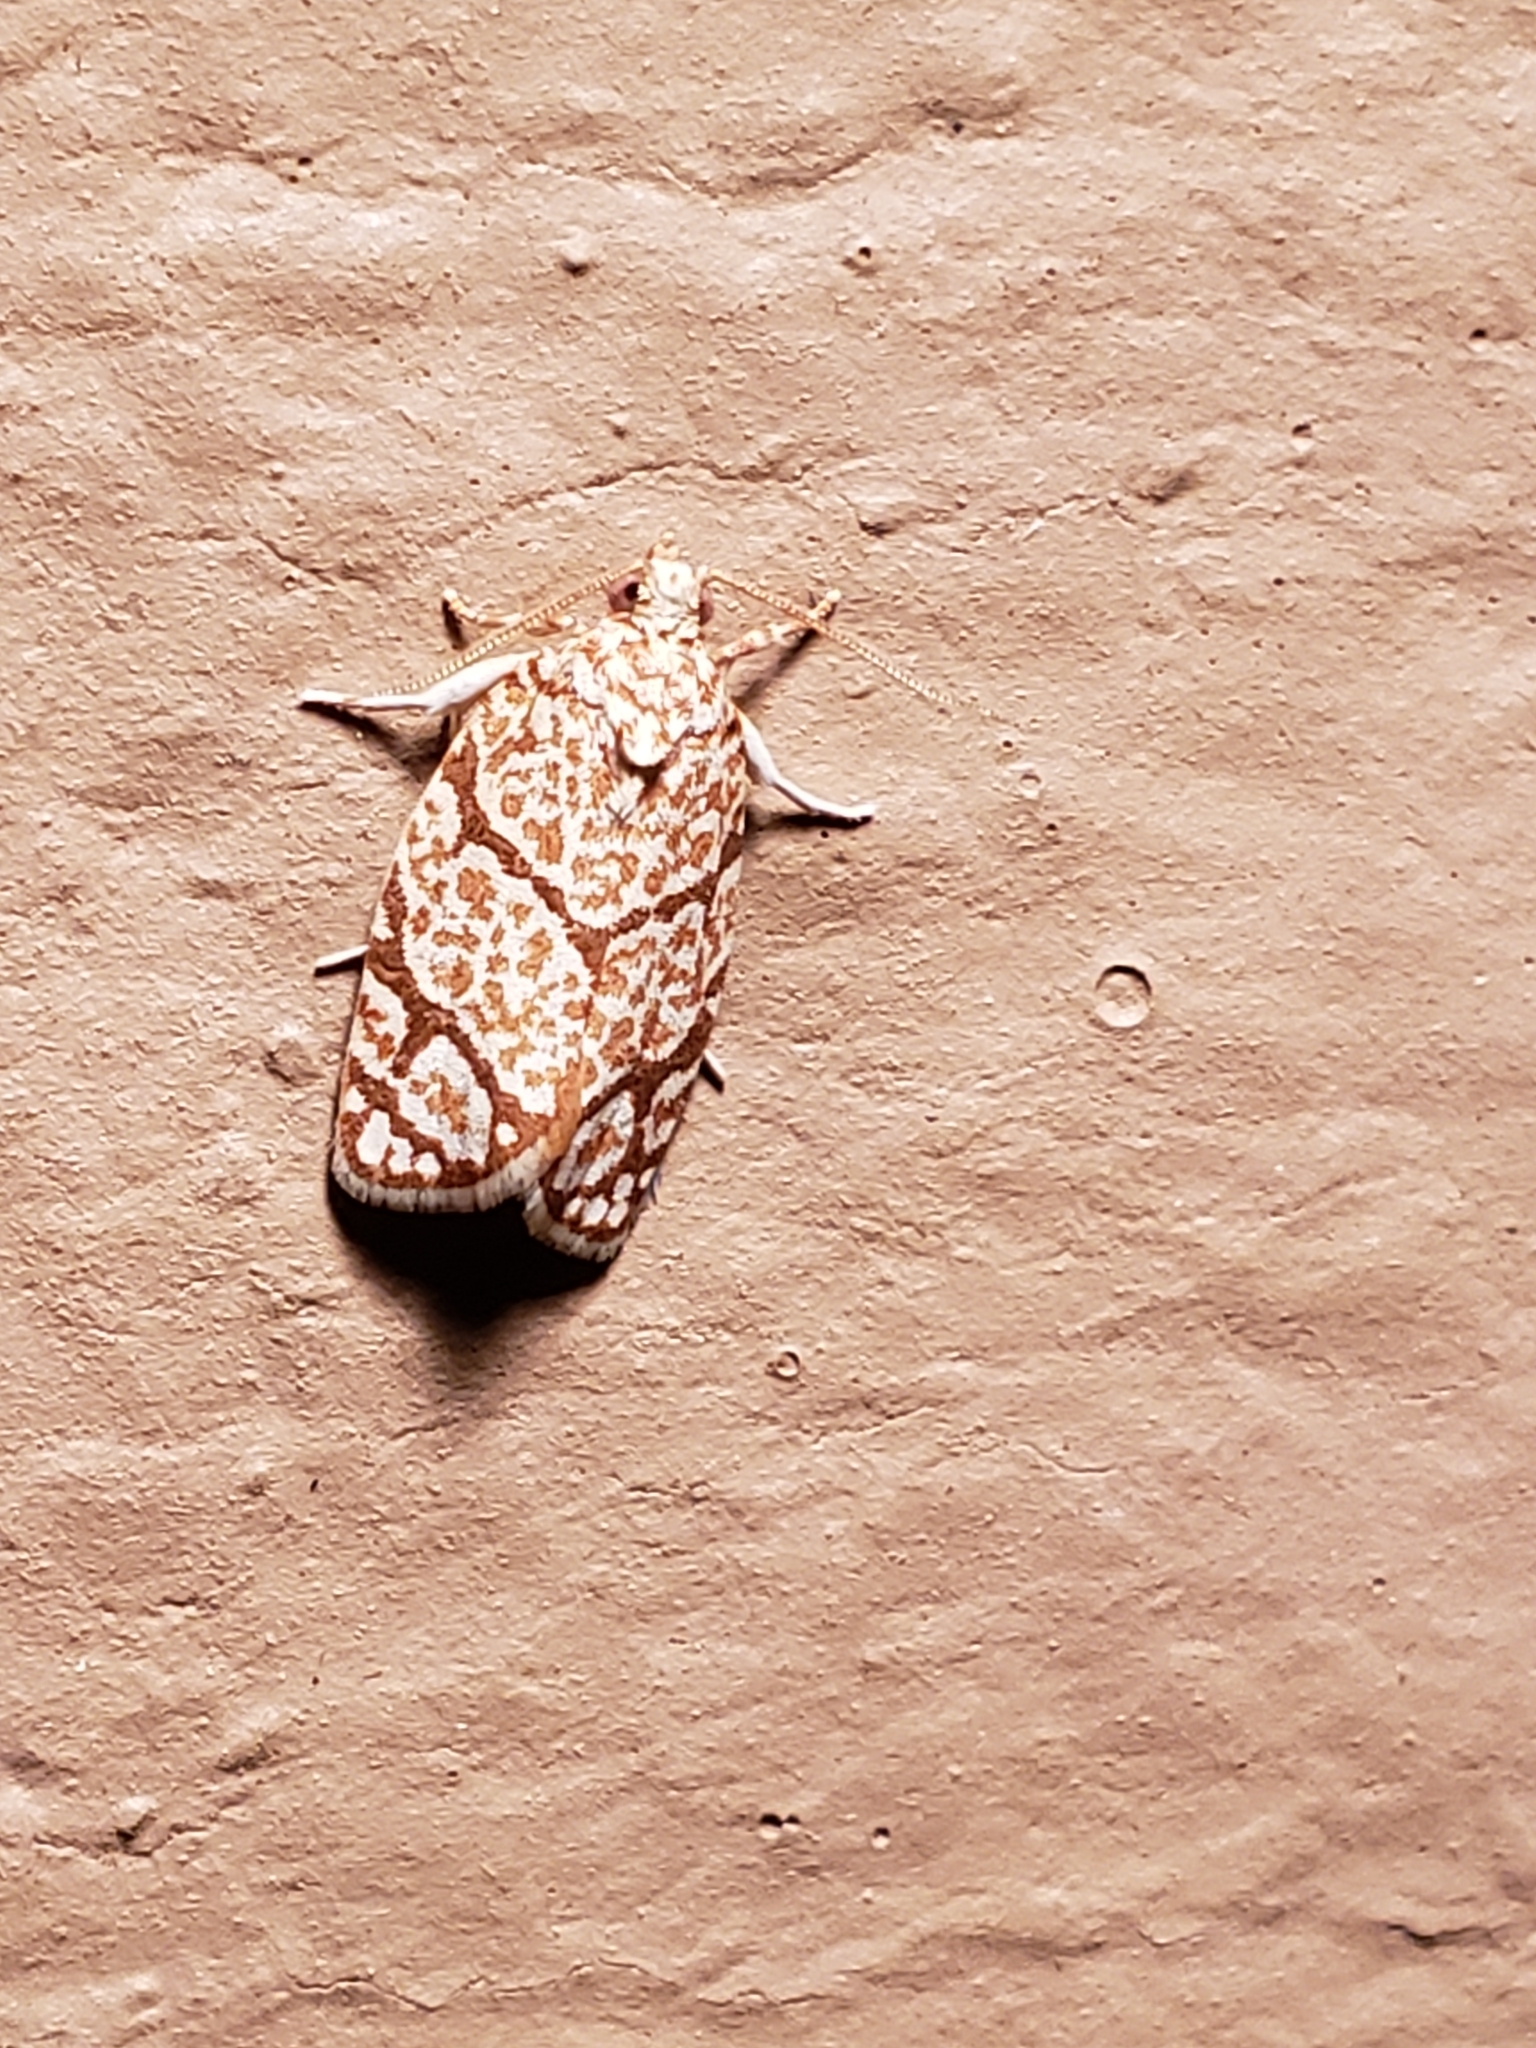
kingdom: Animalia
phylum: Arthropoda
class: Insecta
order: Lepidoptera
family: Tortricidae
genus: Argyrotaenia
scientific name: Argyrotaenia quercifoliana
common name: Yellow-winged oak leafroller moth
